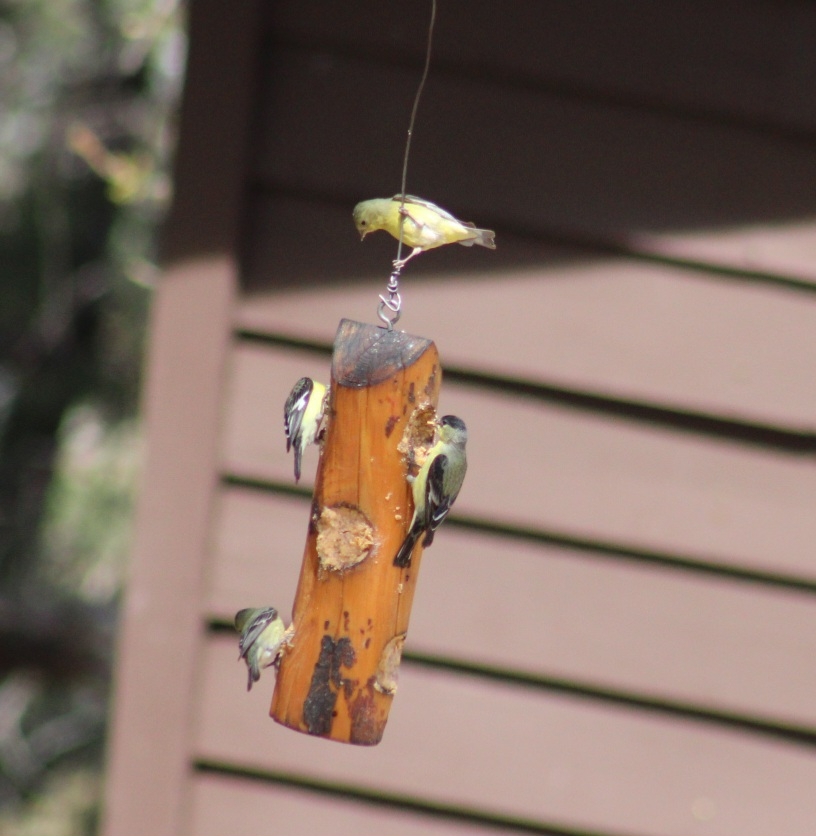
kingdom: Animalia
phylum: Chordata
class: Aves
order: Passeriformes
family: Fringillidae
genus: Spinus
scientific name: Spinus psaltria
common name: Lesser goldfinch
